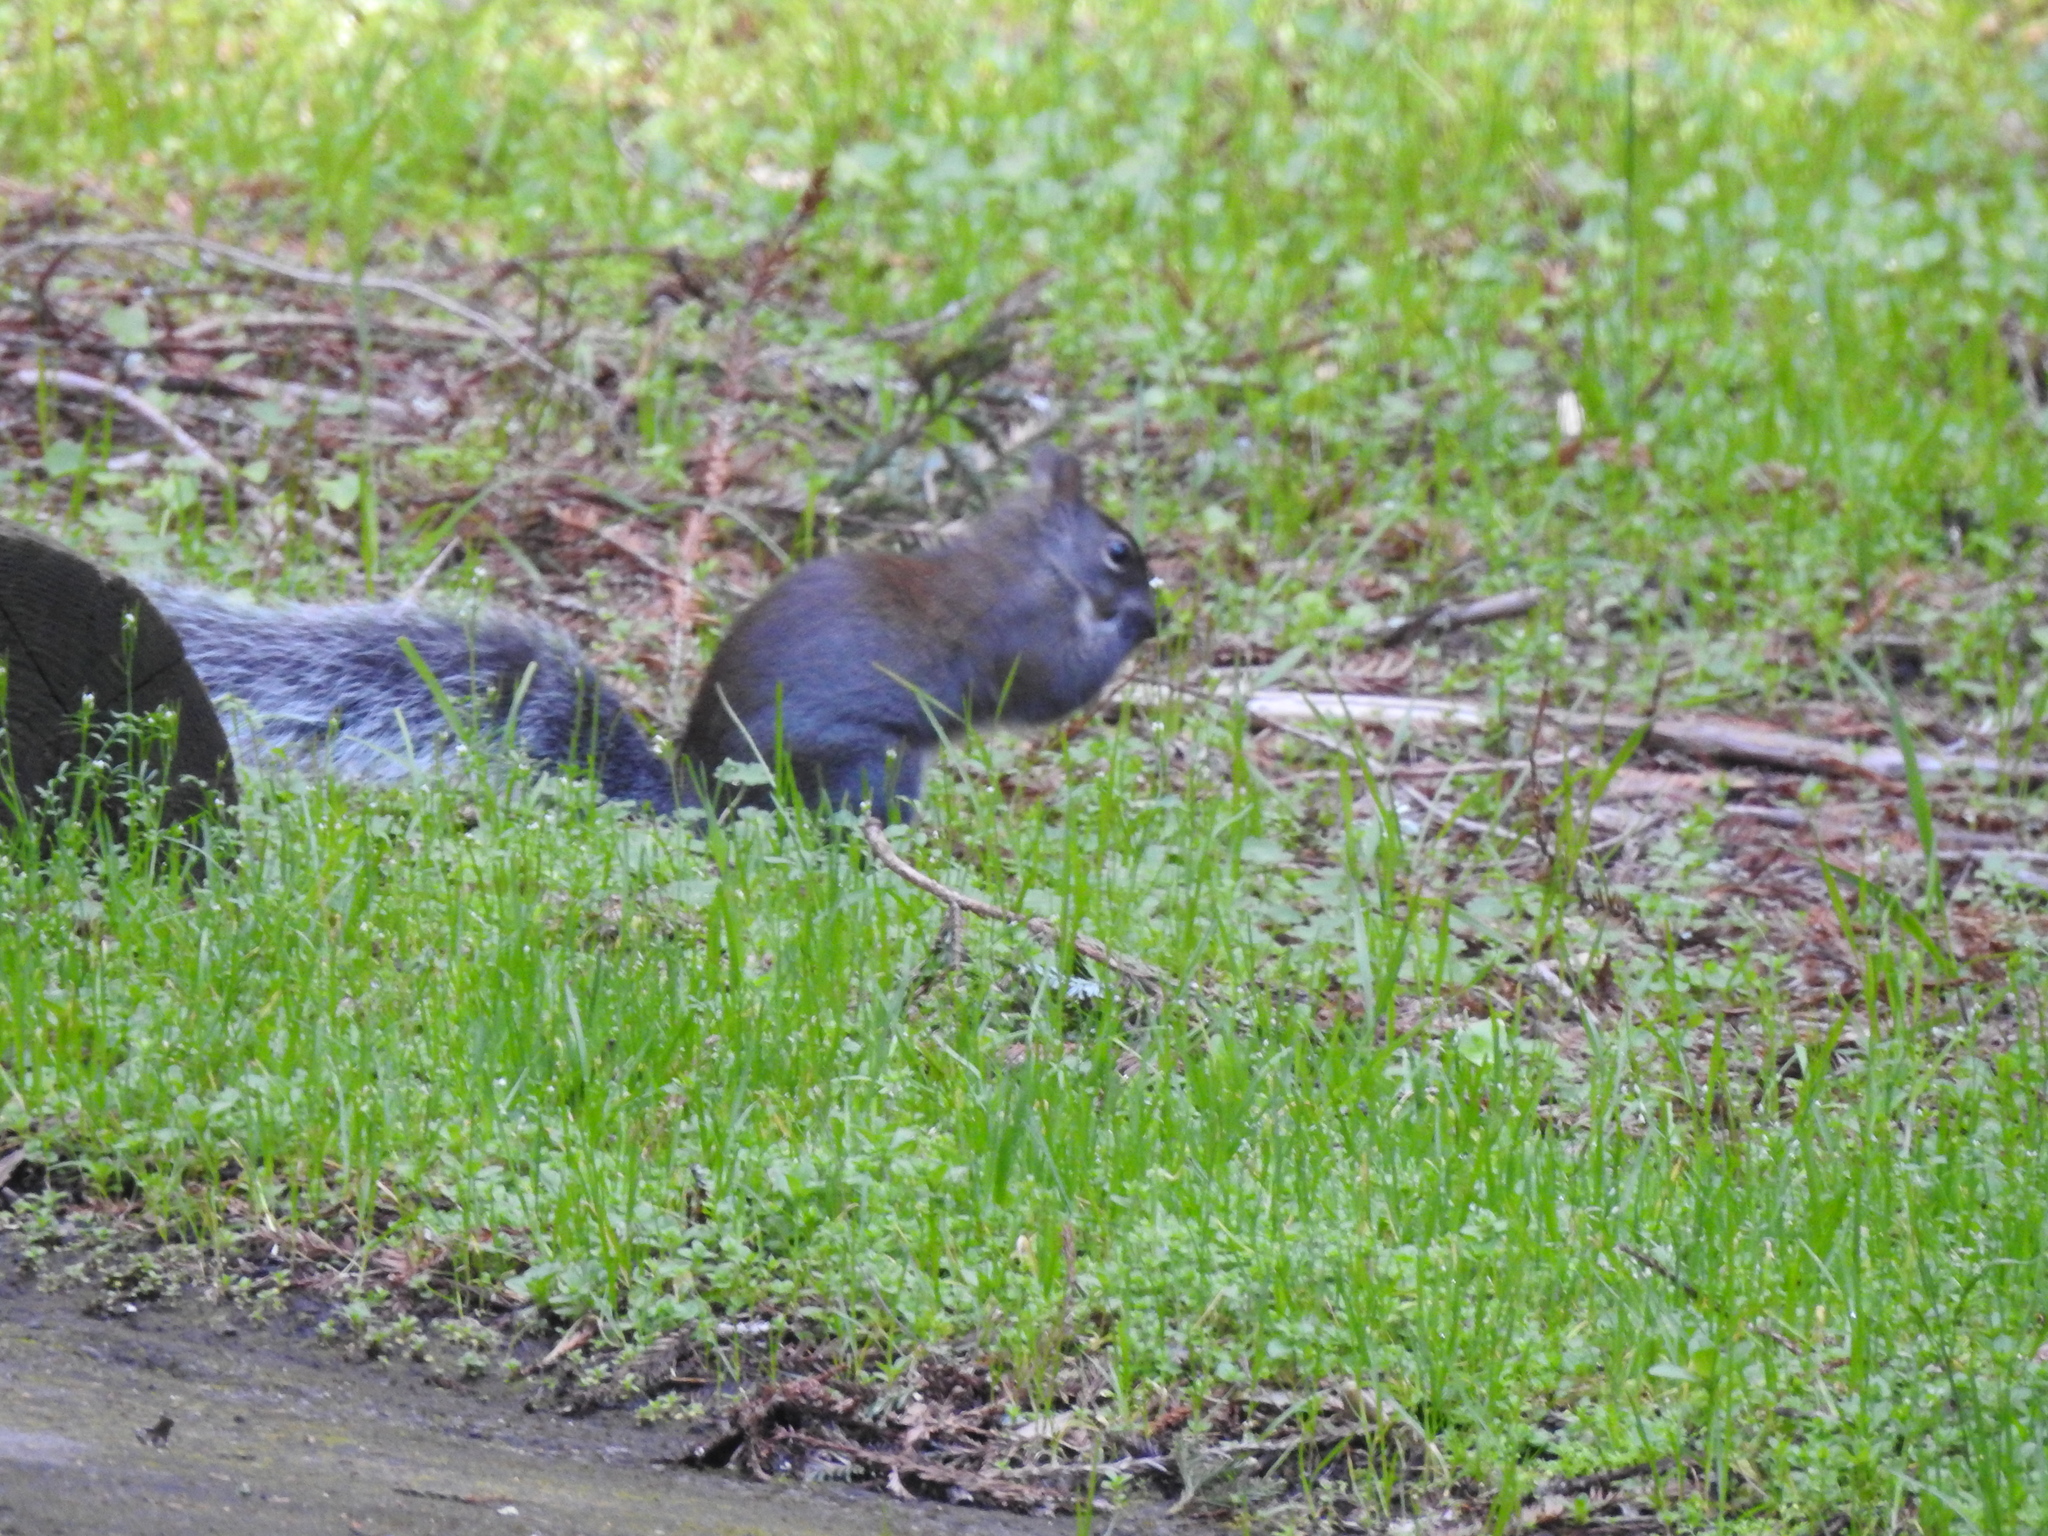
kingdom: Animalia
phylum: Chordata
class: Mammalia
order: Rodentia
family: Sciuridae
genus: Sciurus
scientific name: Sciurus griseus
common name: Western gray squirrel
